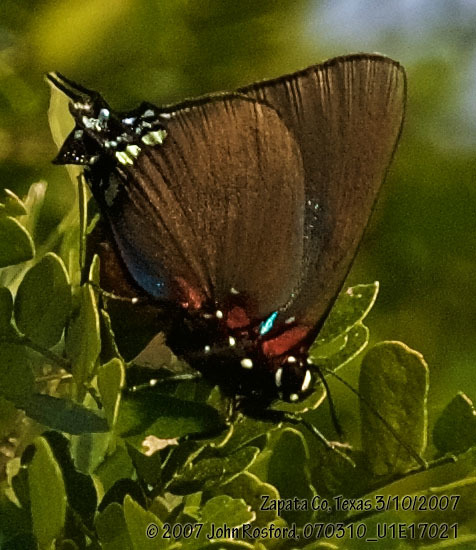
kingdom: Animalia
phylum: Arthropoda
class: Insecta
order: Lepidoptera
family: Lycaenidae
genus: Atlides
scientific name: Atlides halesus
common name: Great purple hairstreak
